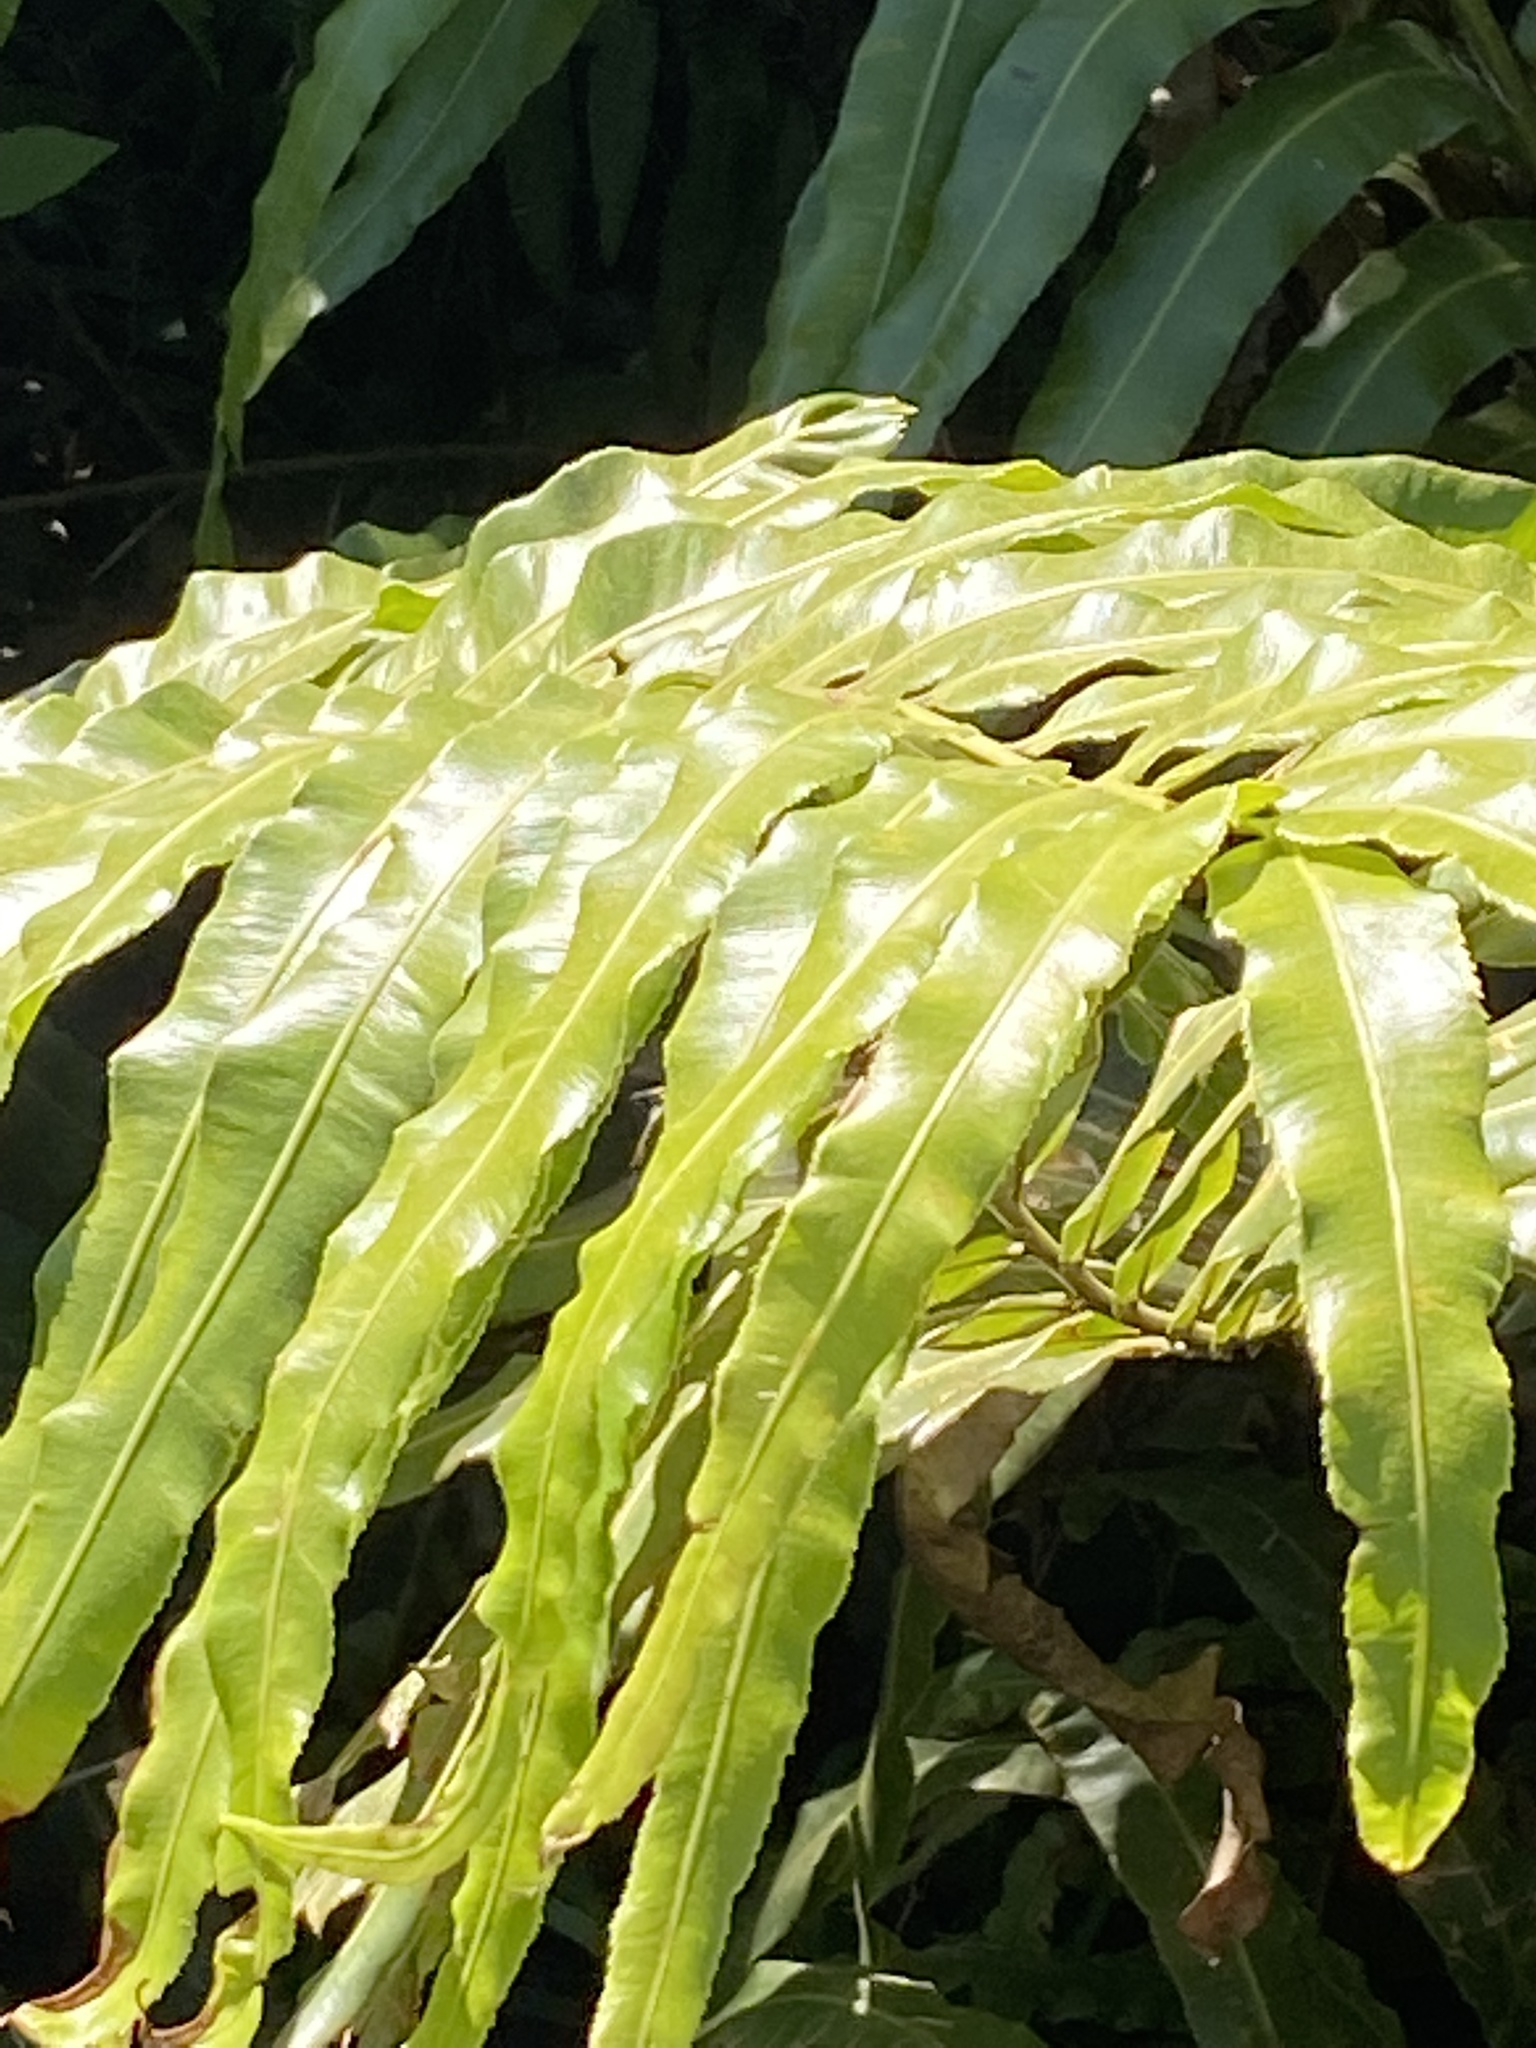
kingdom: Plantae
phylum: Tracheophyta
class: Polypodiopsida
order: Polypodiales
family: Blechnaceae
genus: Stenochlaena
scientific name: Stenochlaena tenuifolia
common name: Giant vine fern
